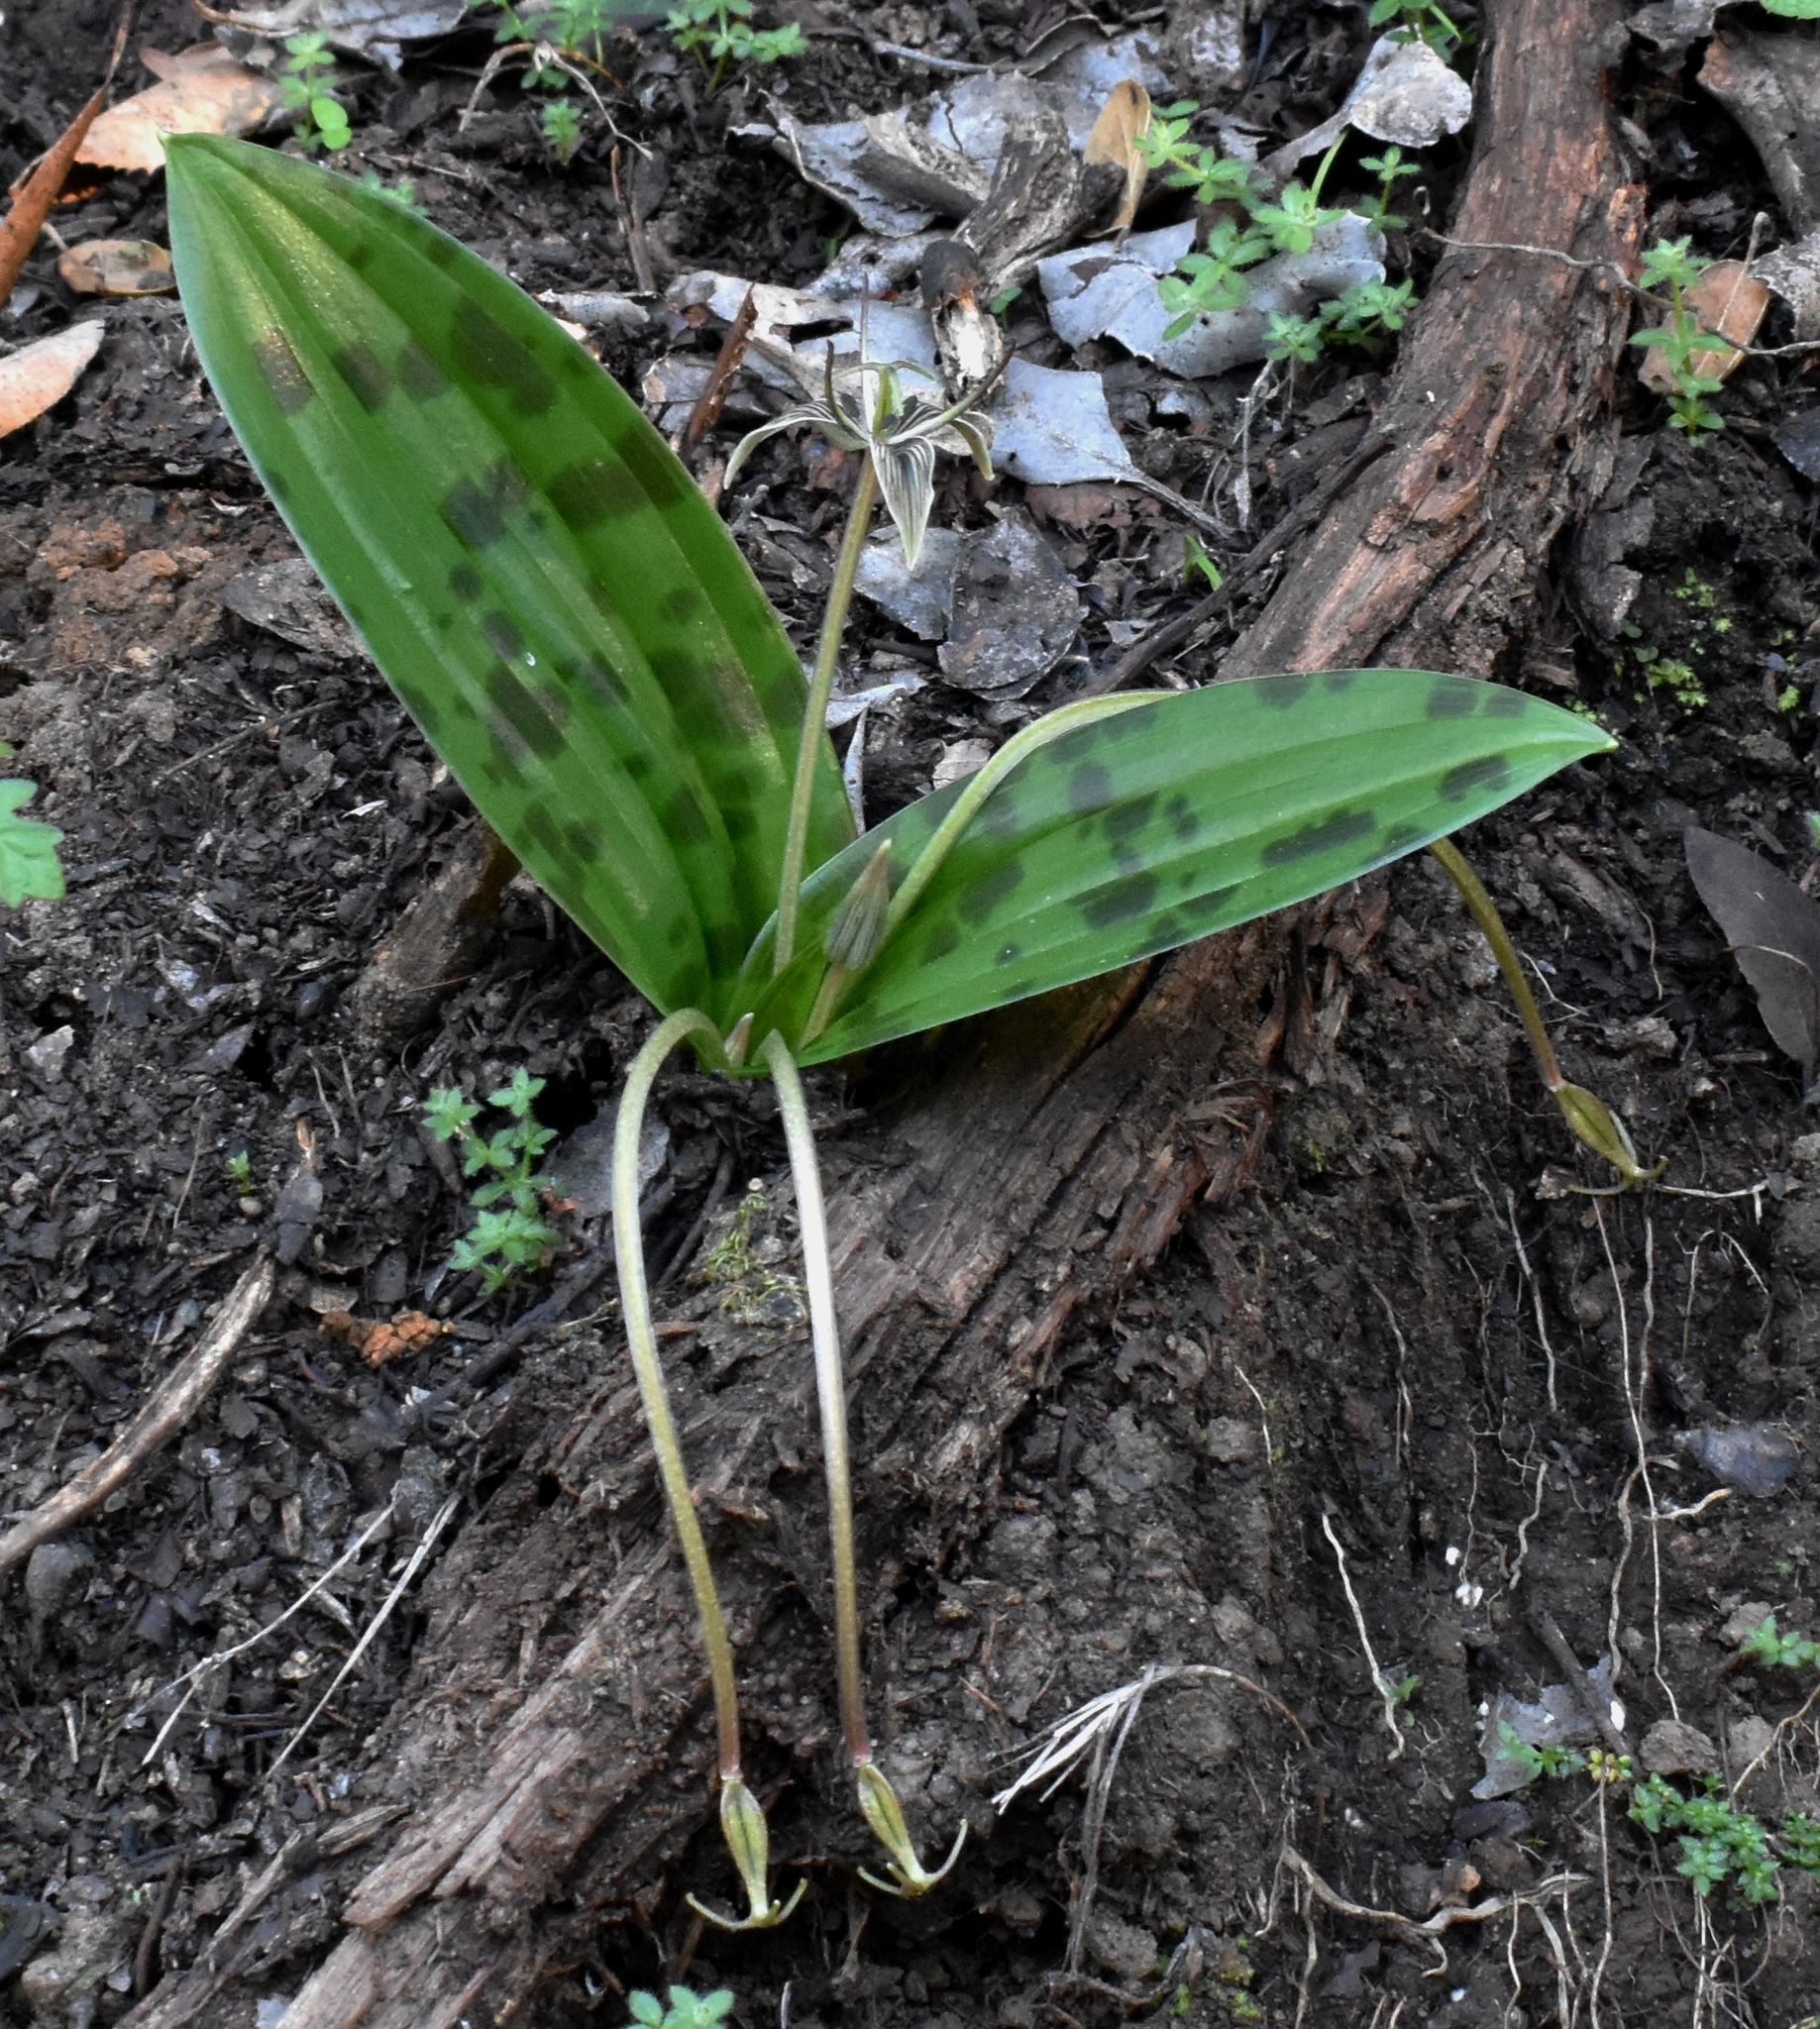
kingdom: Plantae
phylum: Tracheophyta
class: Liliopsida
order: Liliales
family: Liliaceae
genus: Scoliopus
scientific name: Scoliopus bigelovii
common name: Foetid adder's-tongue
